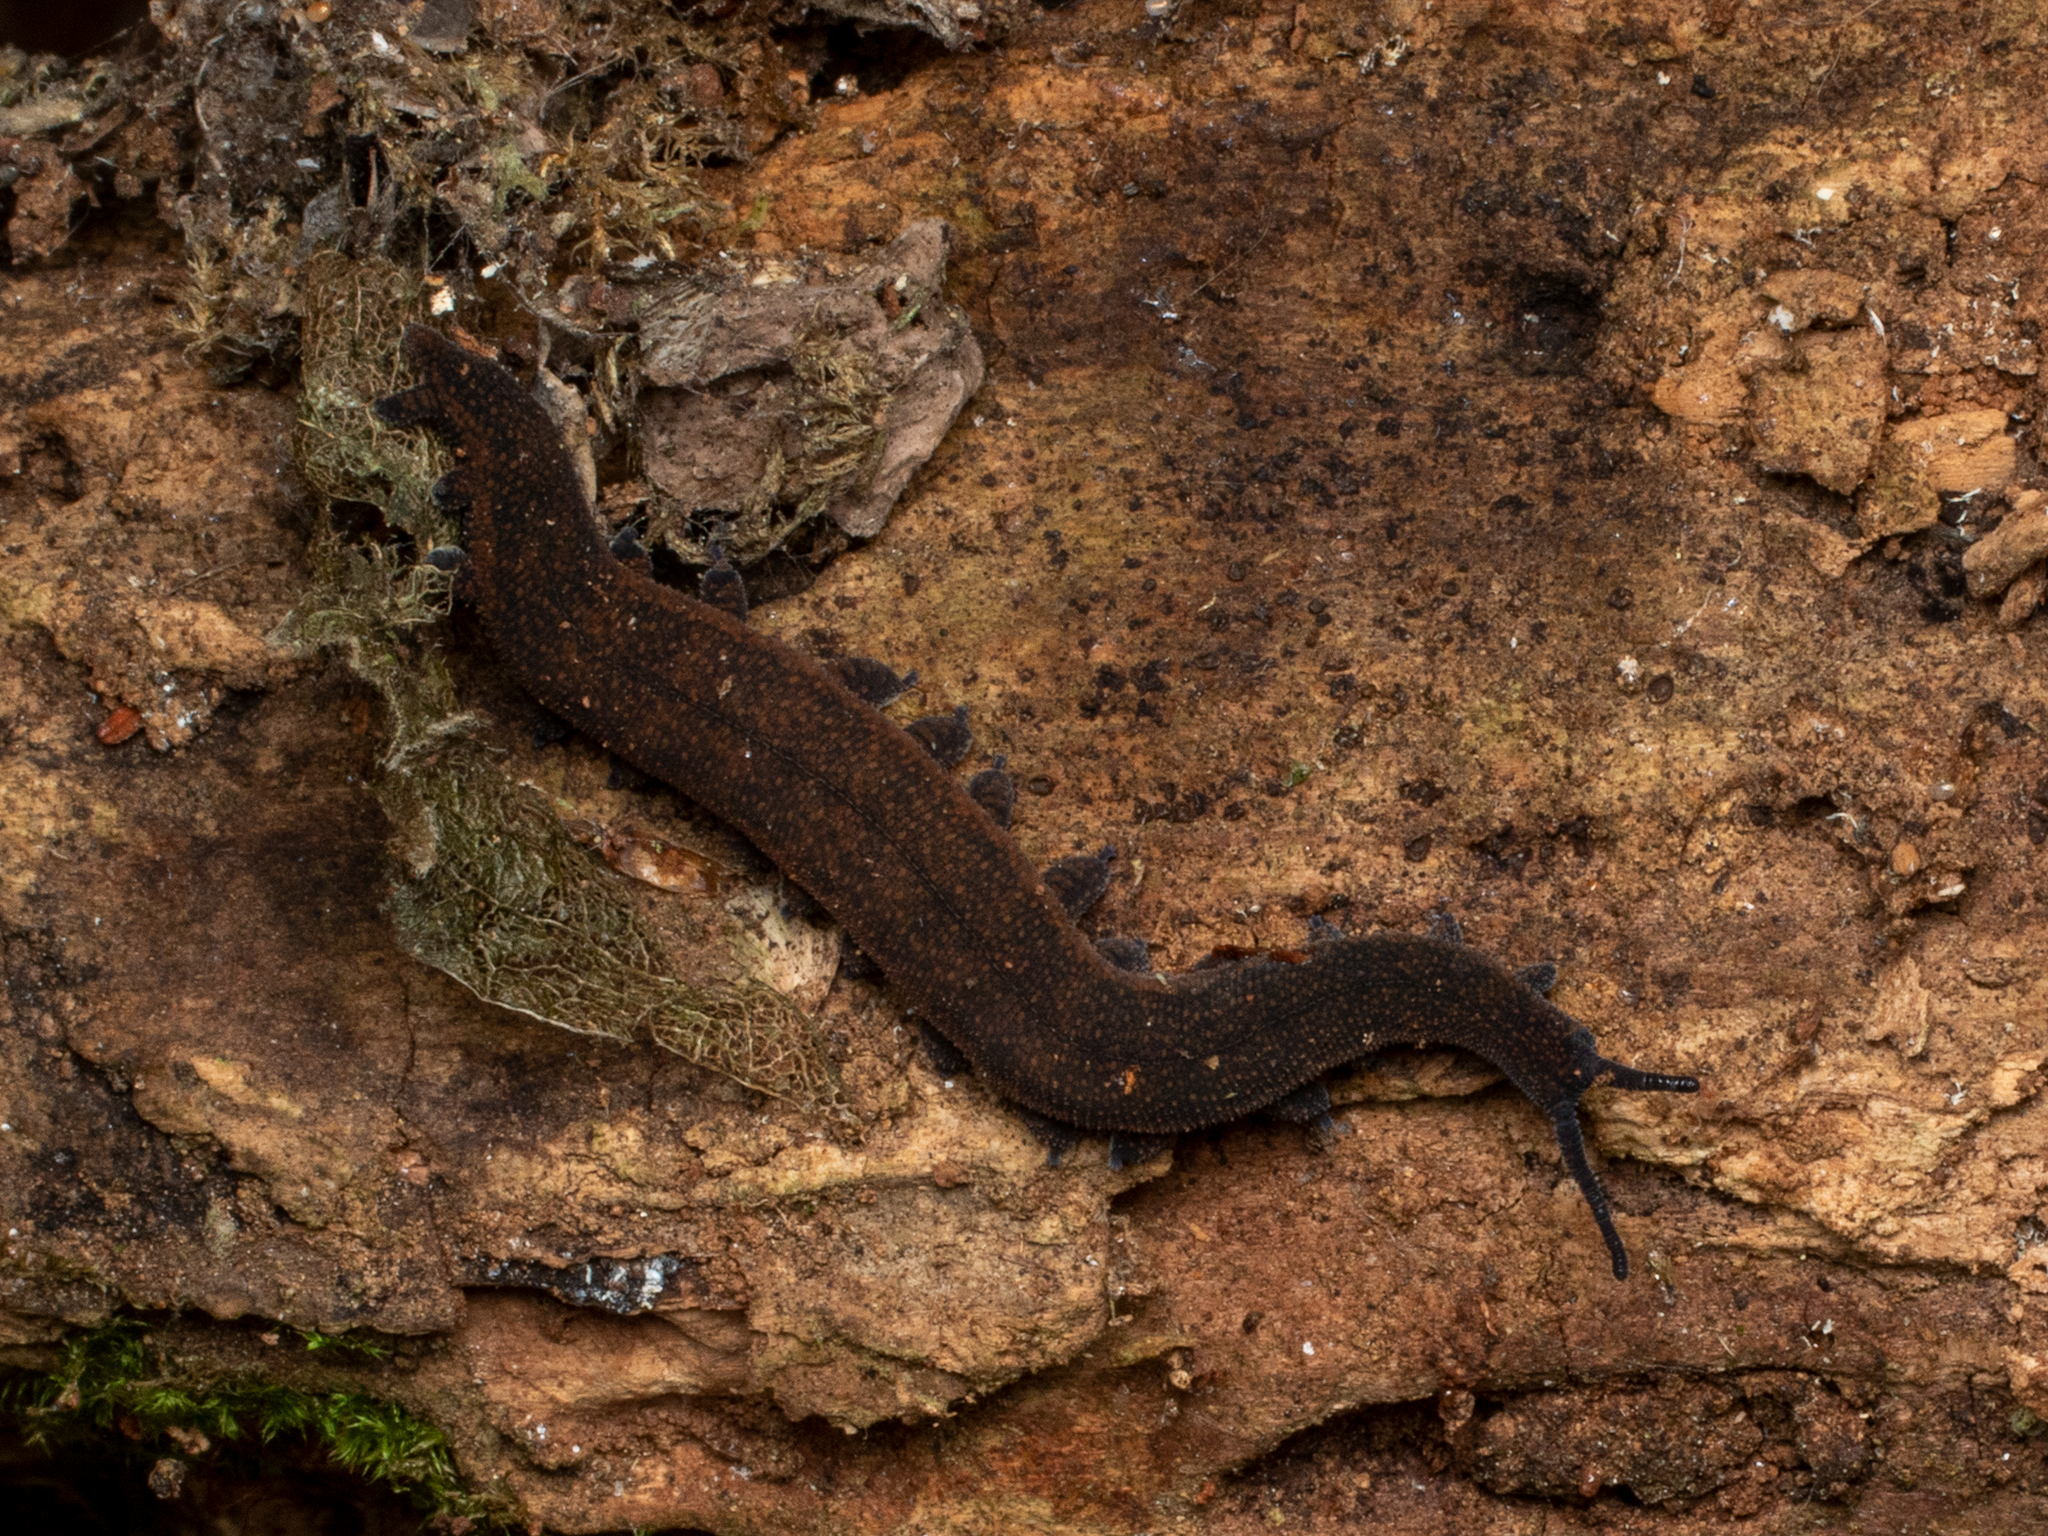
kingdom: Animalia
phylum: Onychophora
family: Peripatopsidae
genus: Peripatoides
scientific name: Peripatoides
